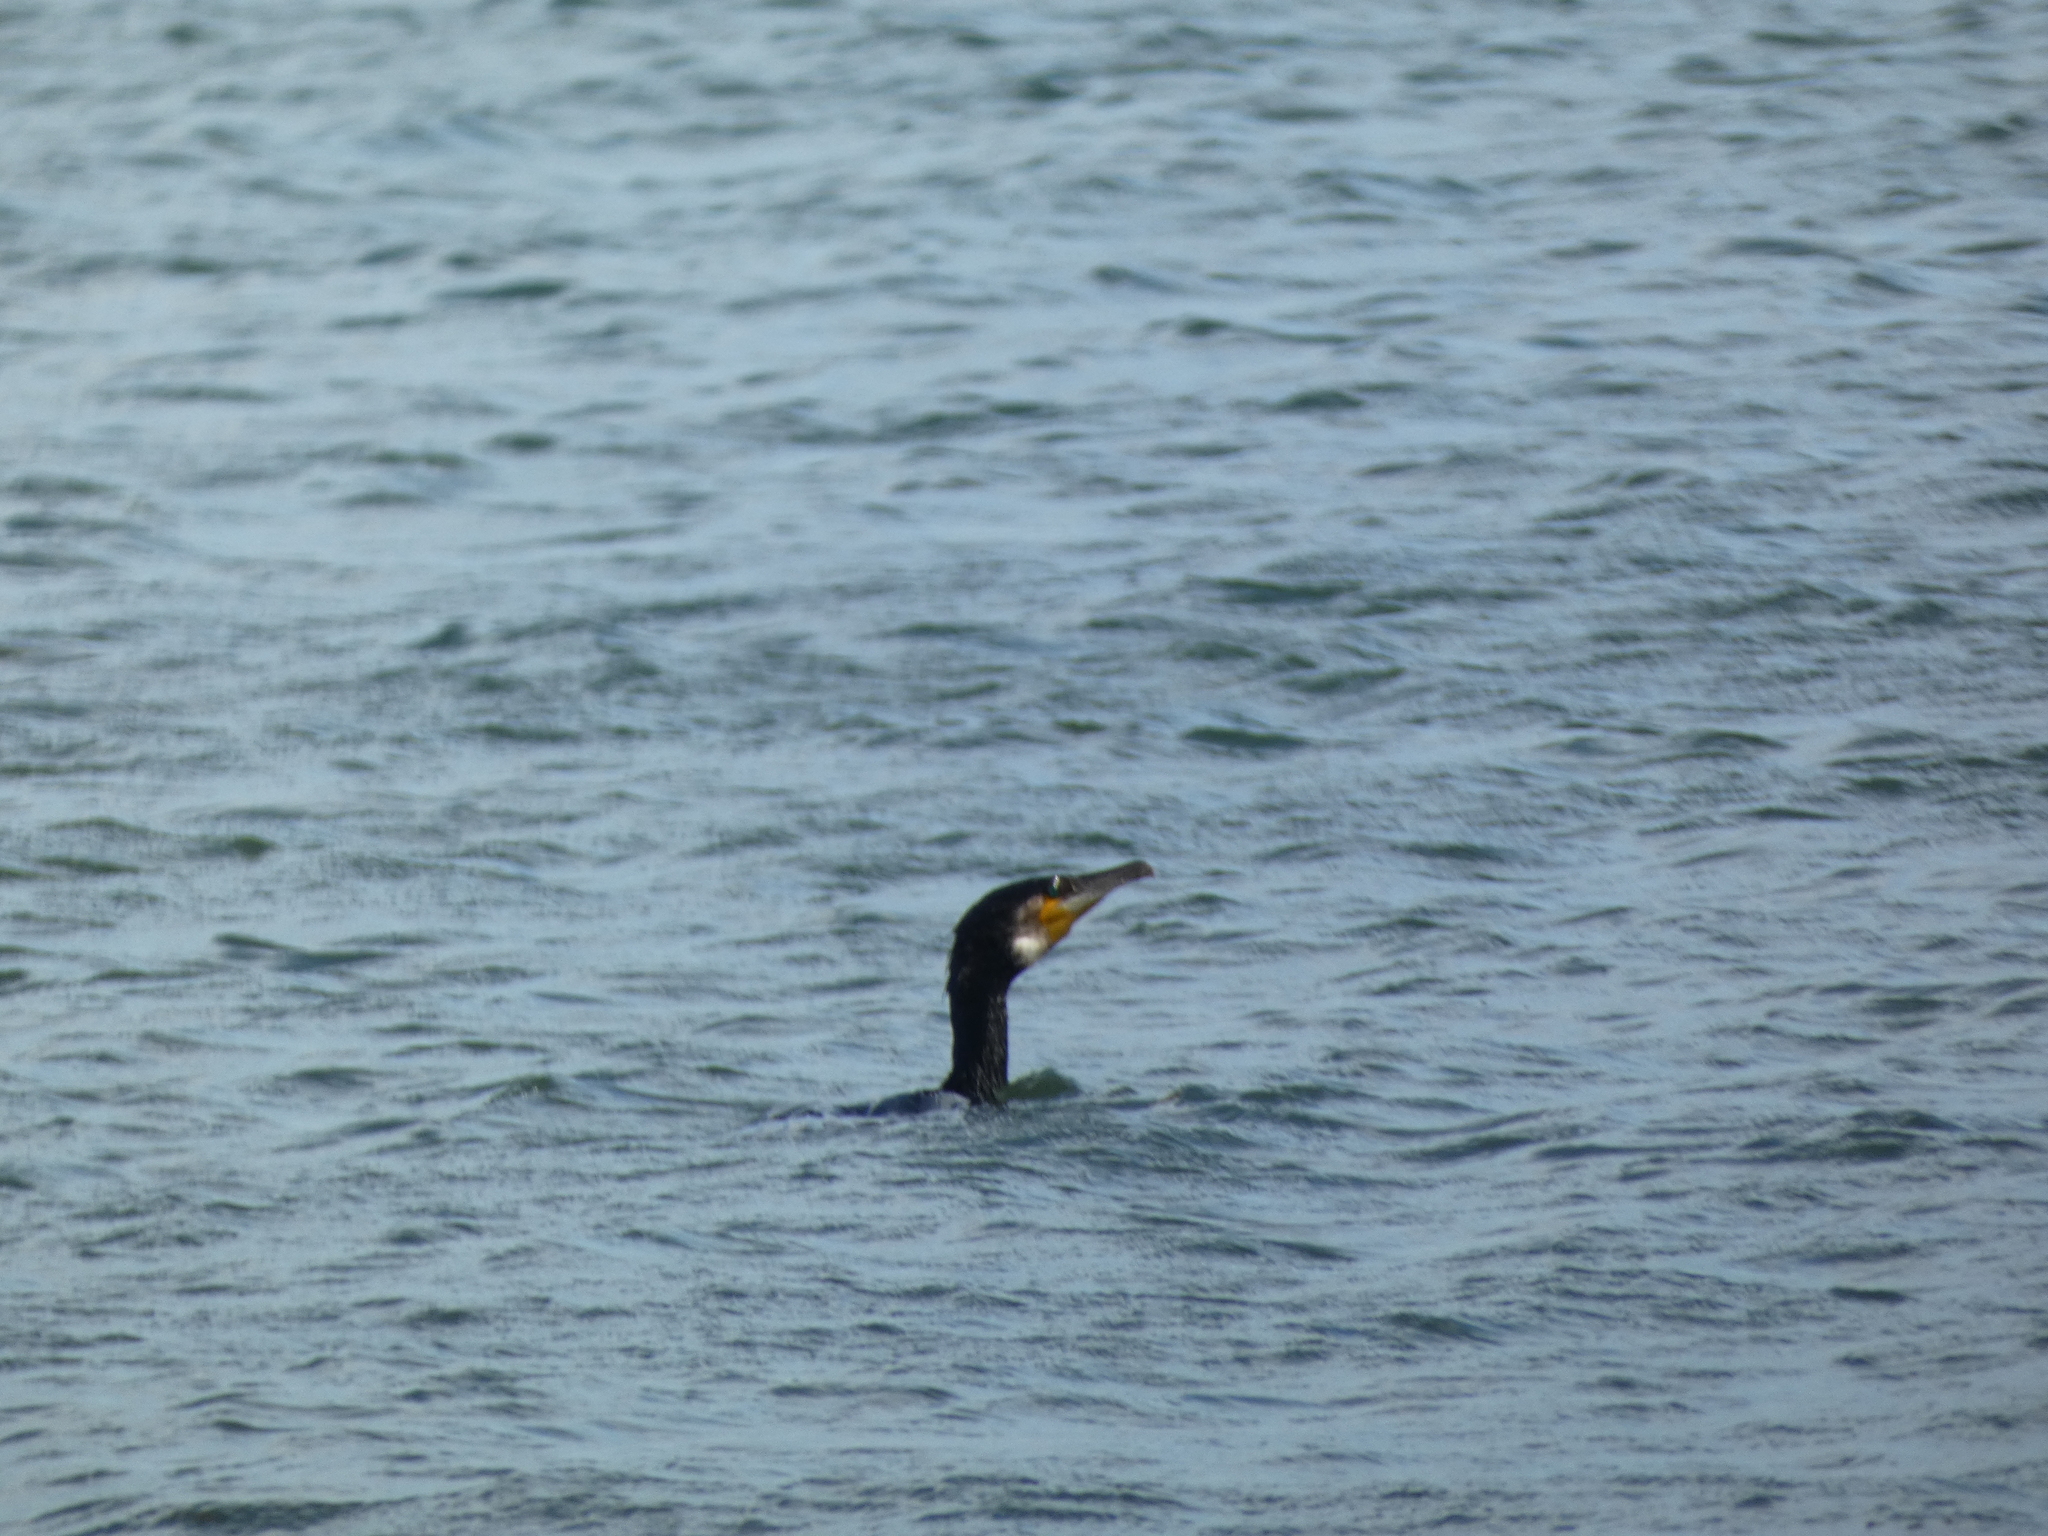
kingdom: Animalia
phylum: Chordata
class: Aves
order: Suliformes
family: Phalacrocoracidae
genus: Phalacrocorax
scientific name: Phalacrocorax carbo
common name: Great cormorant
